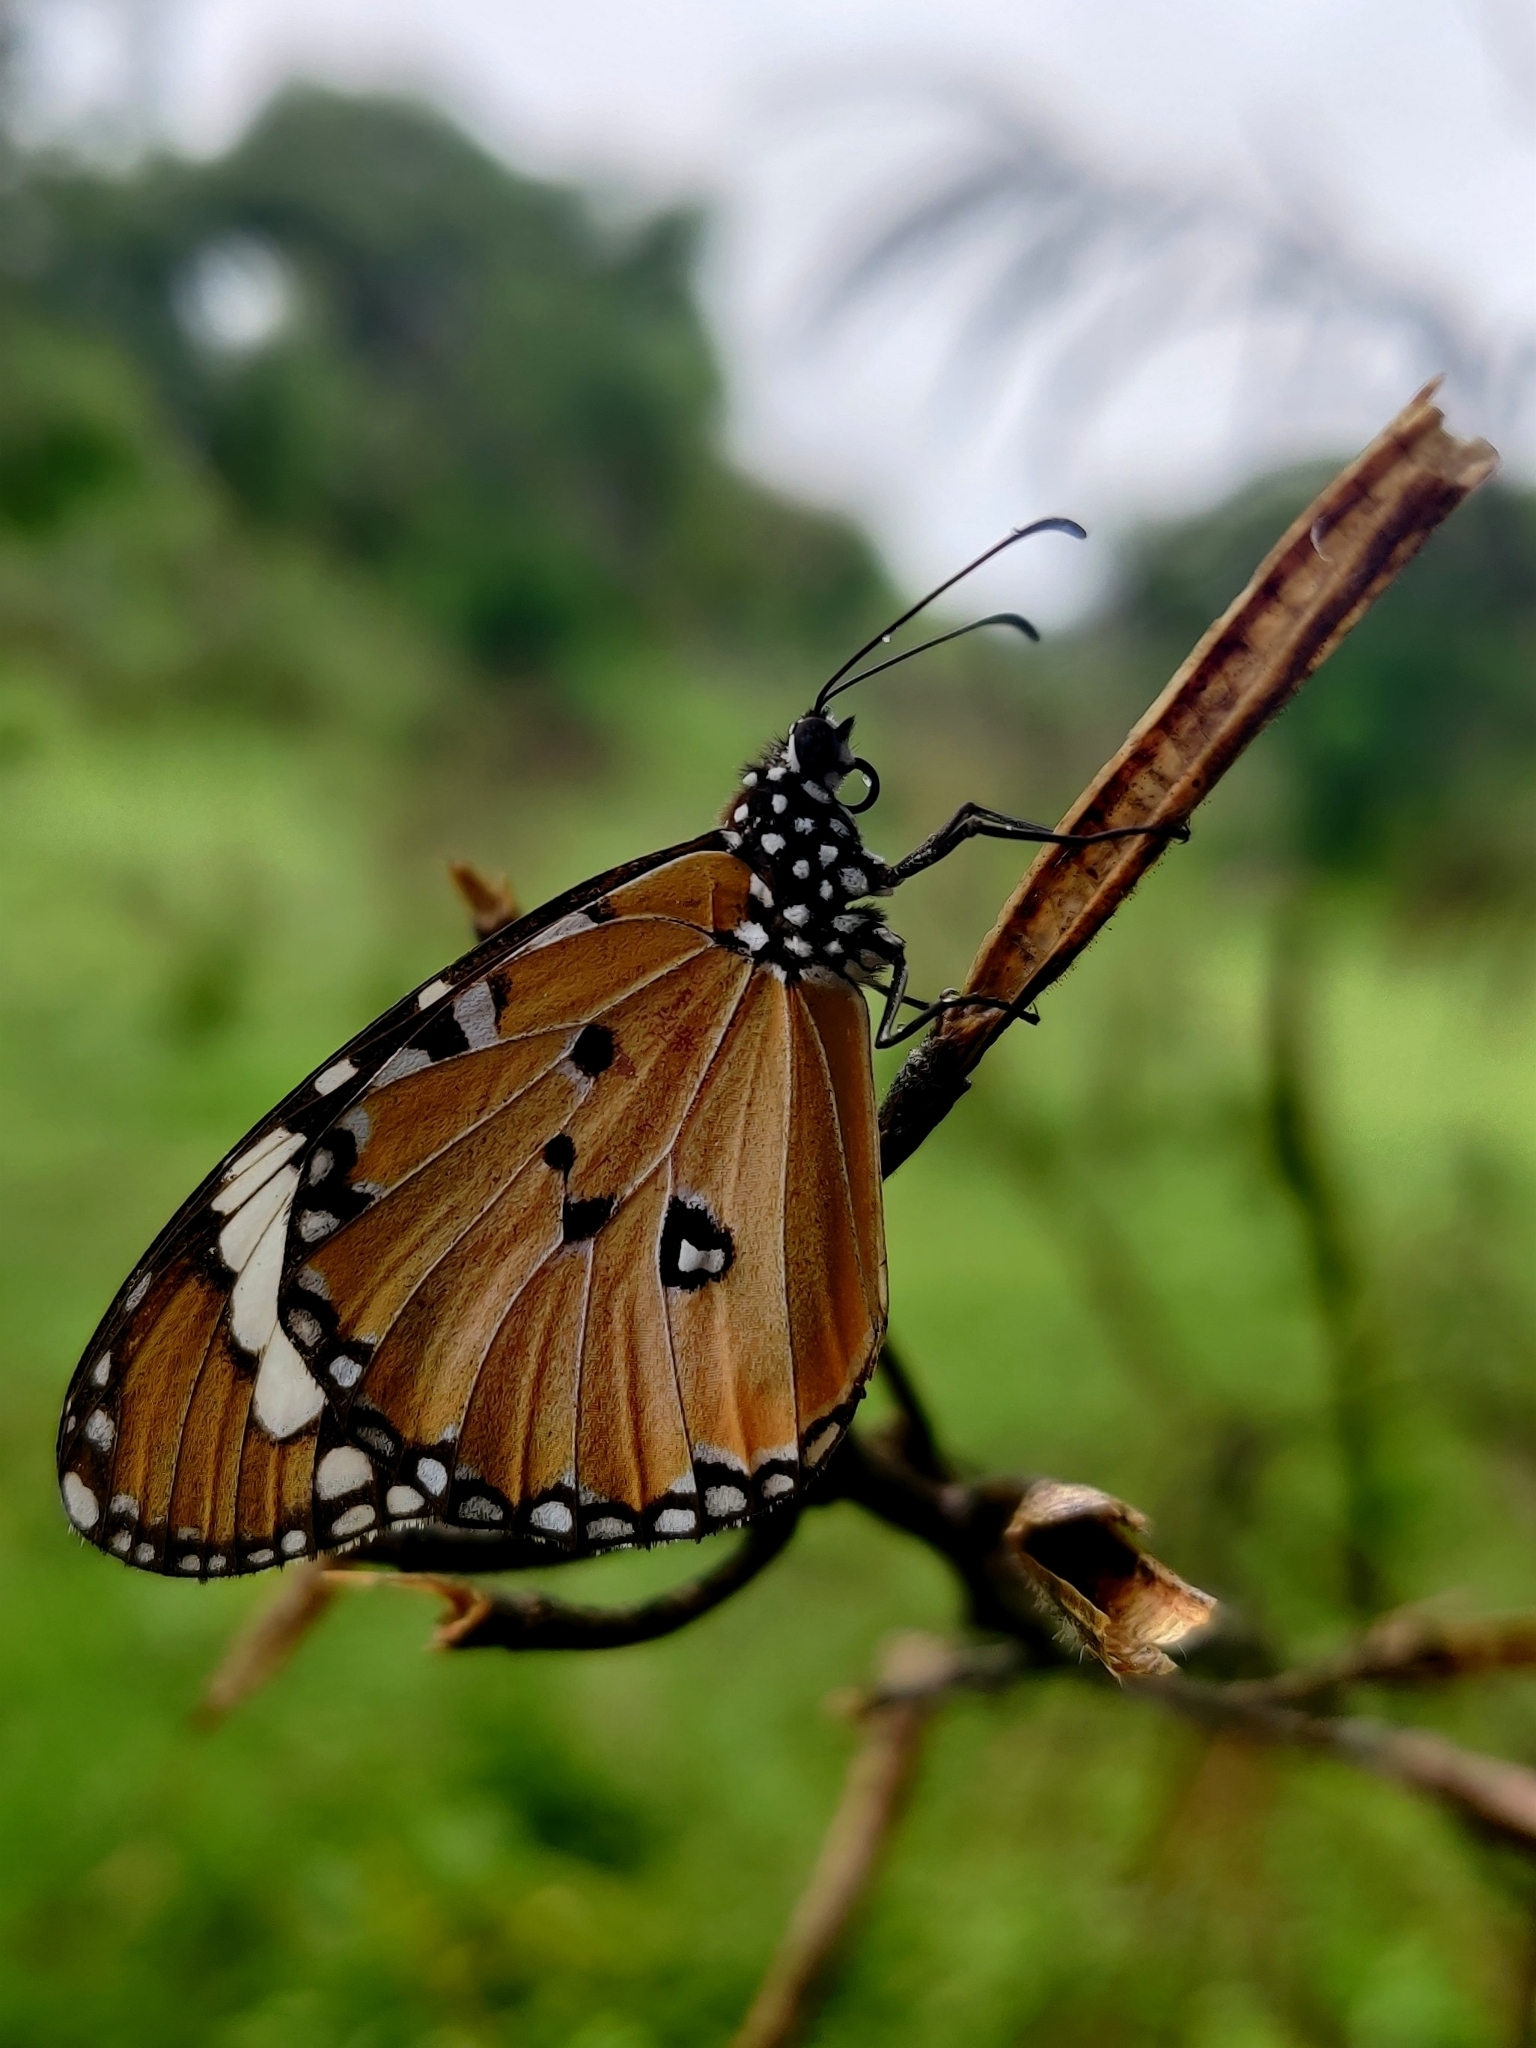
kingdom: Animalia
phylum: Arthropoda
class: Insecta
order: Lepidoptera
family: Nymphalidae
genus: Danaus
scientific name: Danaus chrysippus
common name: Plain tiger
